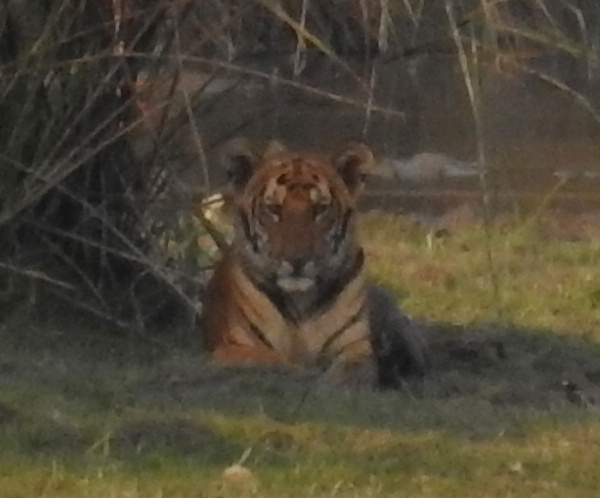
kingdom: Animalia
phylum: Chordata
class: Mammalia
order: Carnivora
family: Felidae
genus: Panthera
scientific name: Panthera tigris
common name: Tiger
